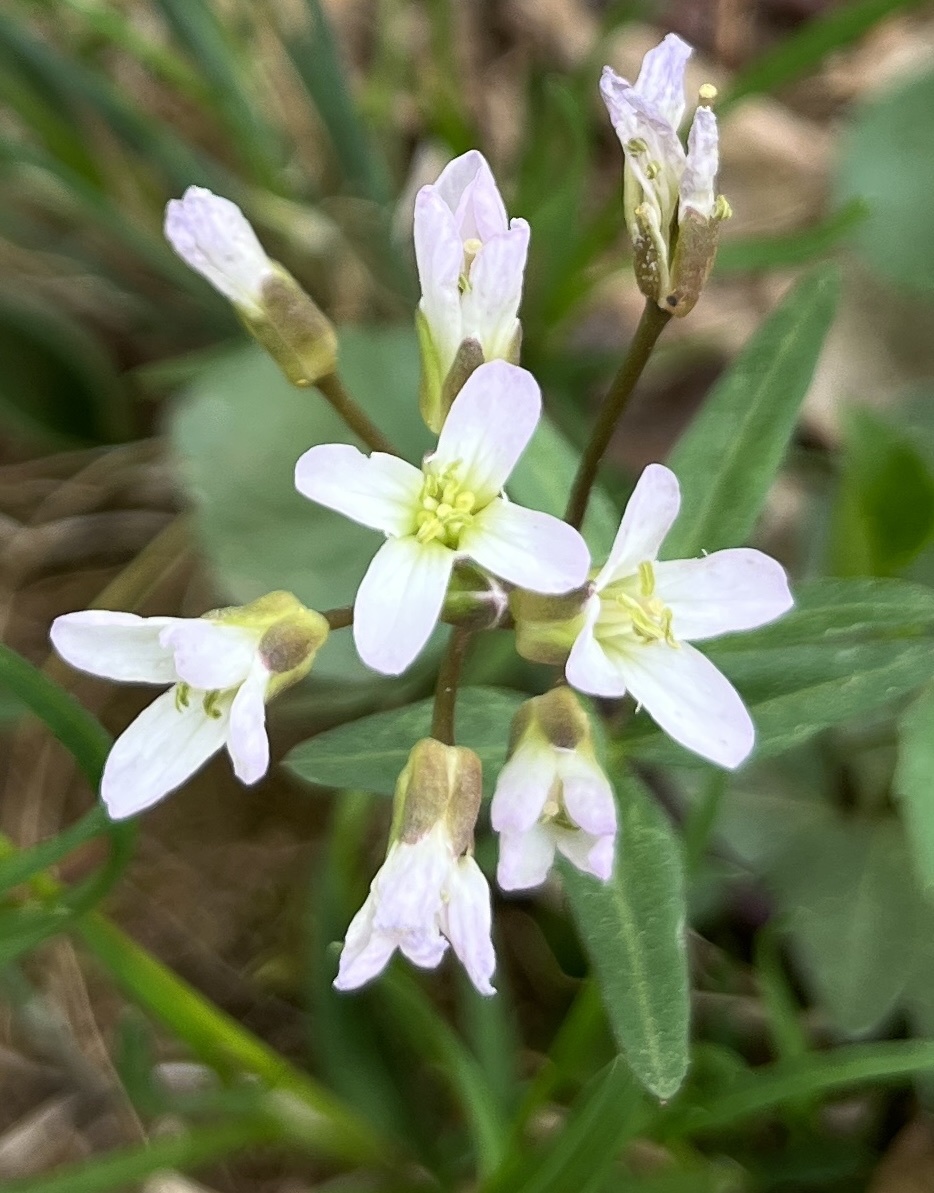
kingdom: Plantae
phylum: Tracheophyta
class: Magnoliopsida
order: Brassicales
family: Brassicaceae
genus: Cardamine
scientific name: Cardamine concatenata
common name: Cut-leaf toothcup
